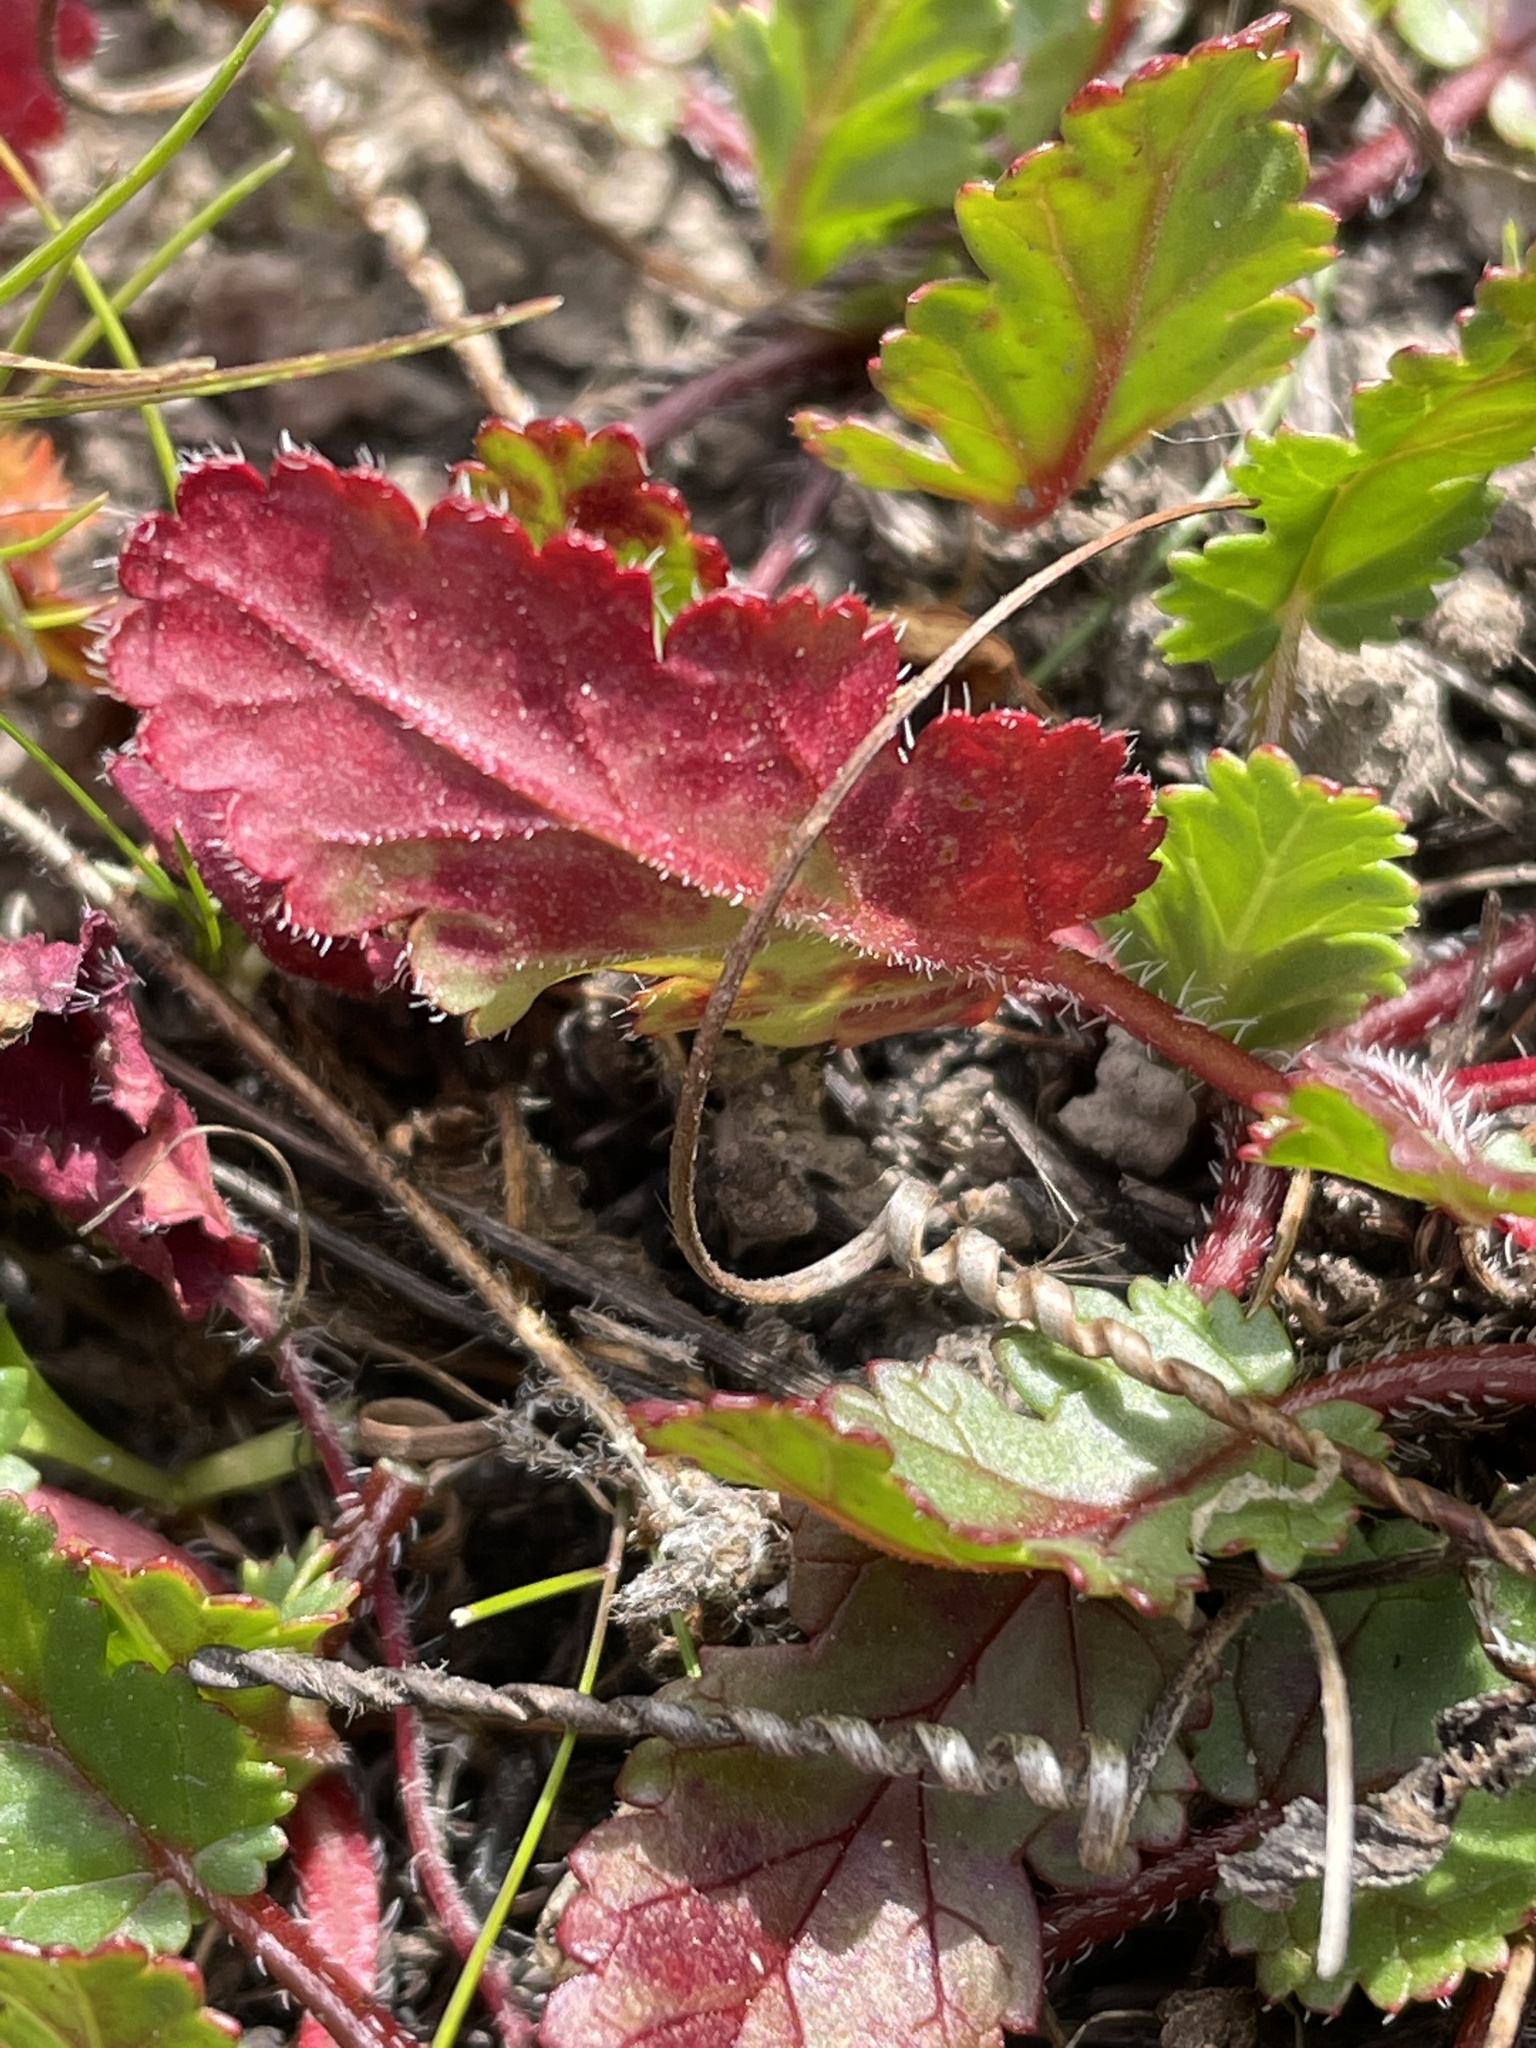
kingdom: Plantae
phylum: Tracheophyta
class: Magnoliopsida
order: Geraniales
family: Geraniaceae
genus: Erodium
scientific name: Erodium botrys
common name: Mediterranean stork's-bill
